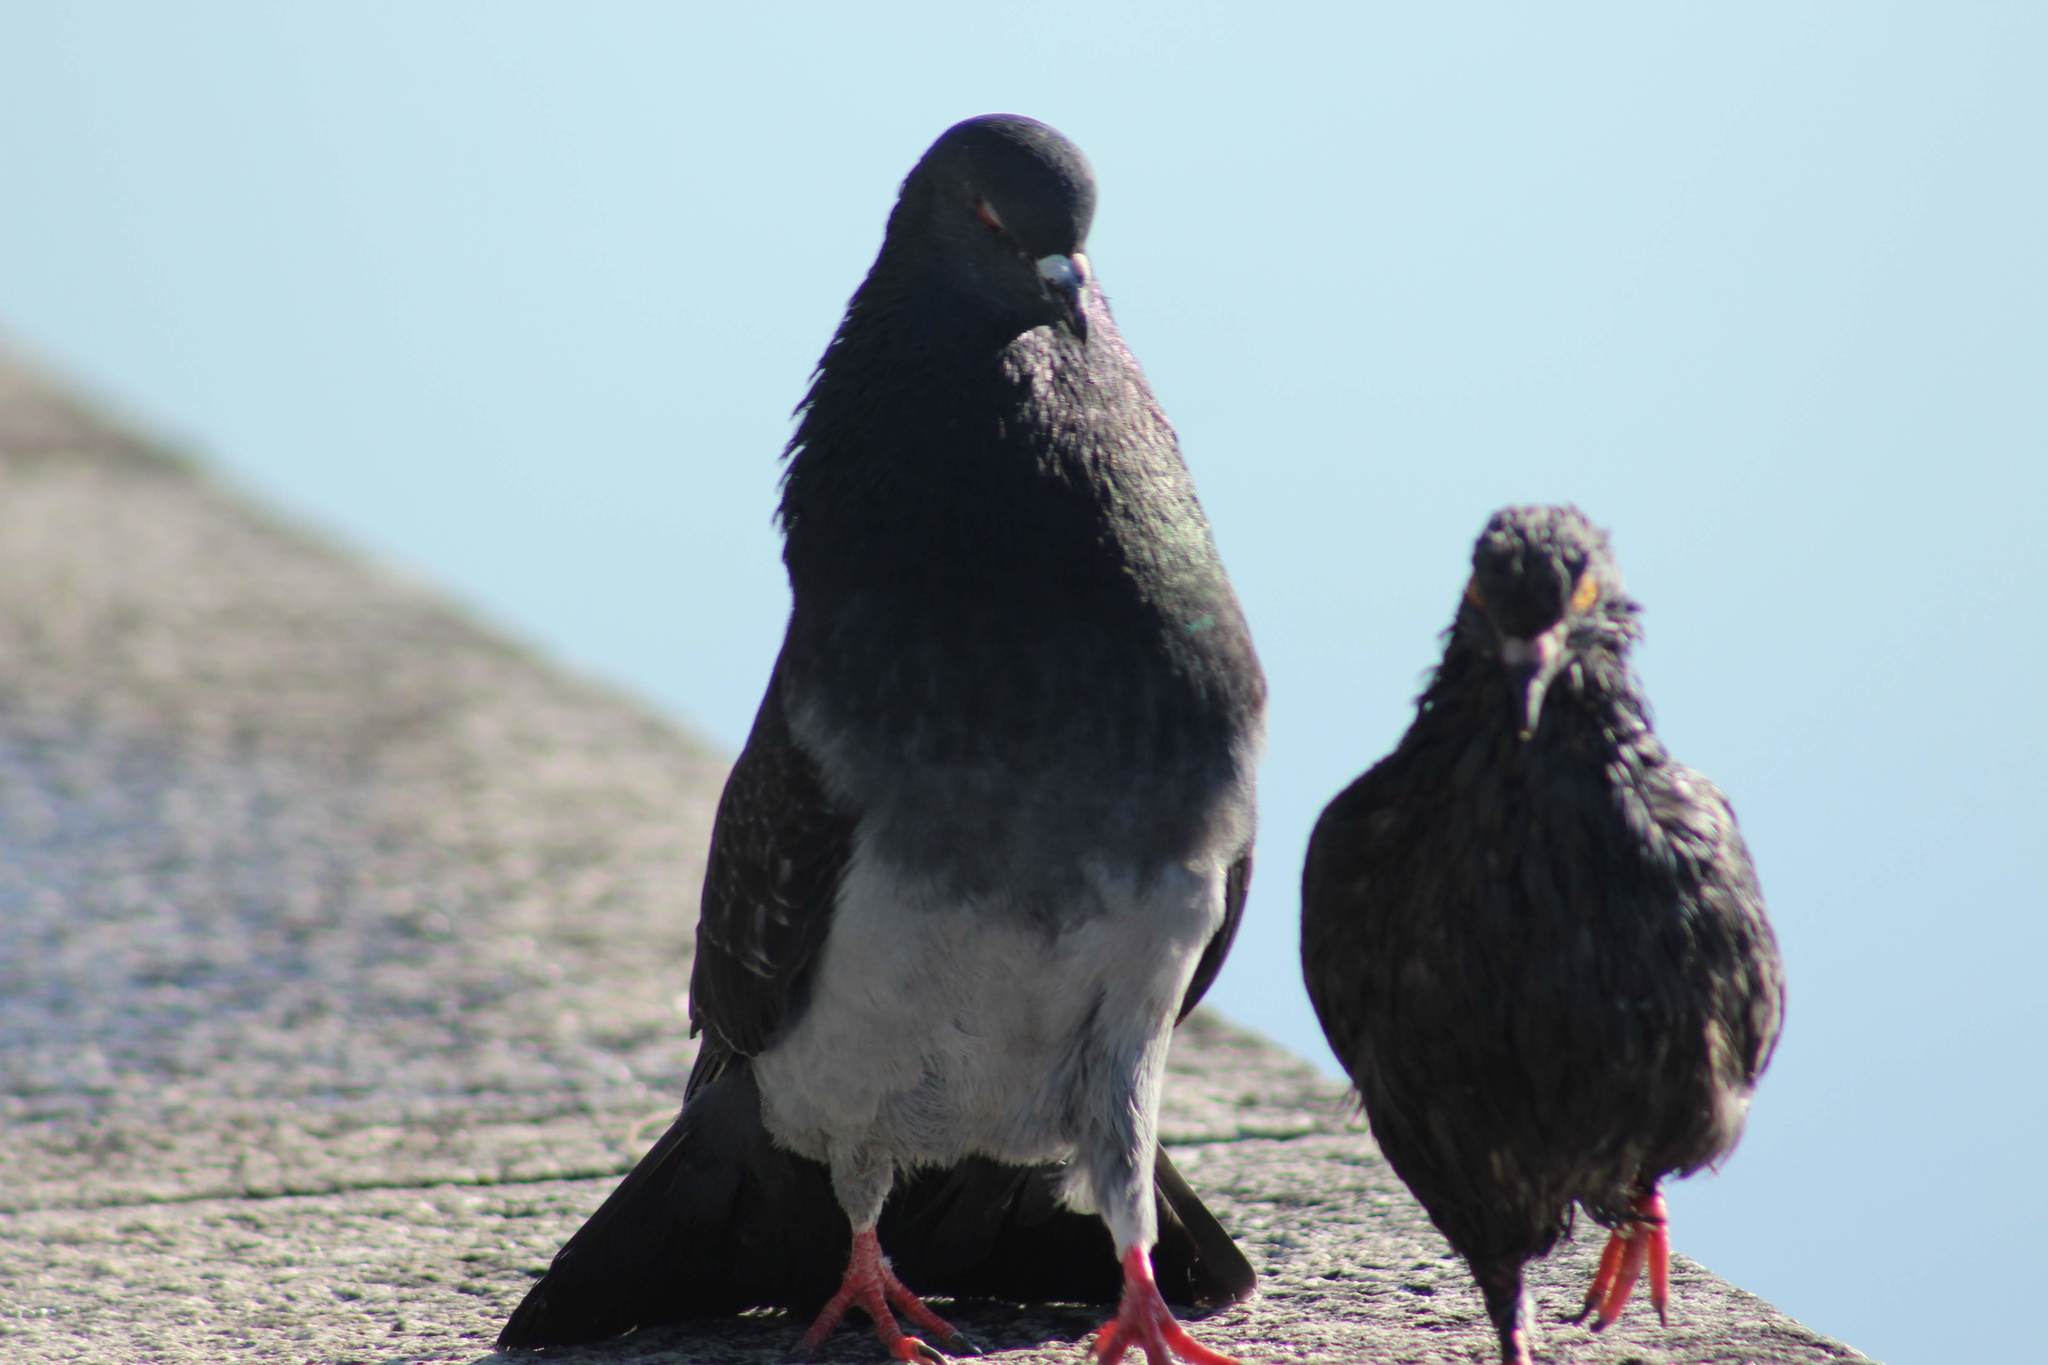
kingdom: Animalia
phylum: Chordata
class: Aves
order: Columbiformes
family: Columbidae
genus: Columba
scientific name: Columba livia
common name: Rock pigeon
